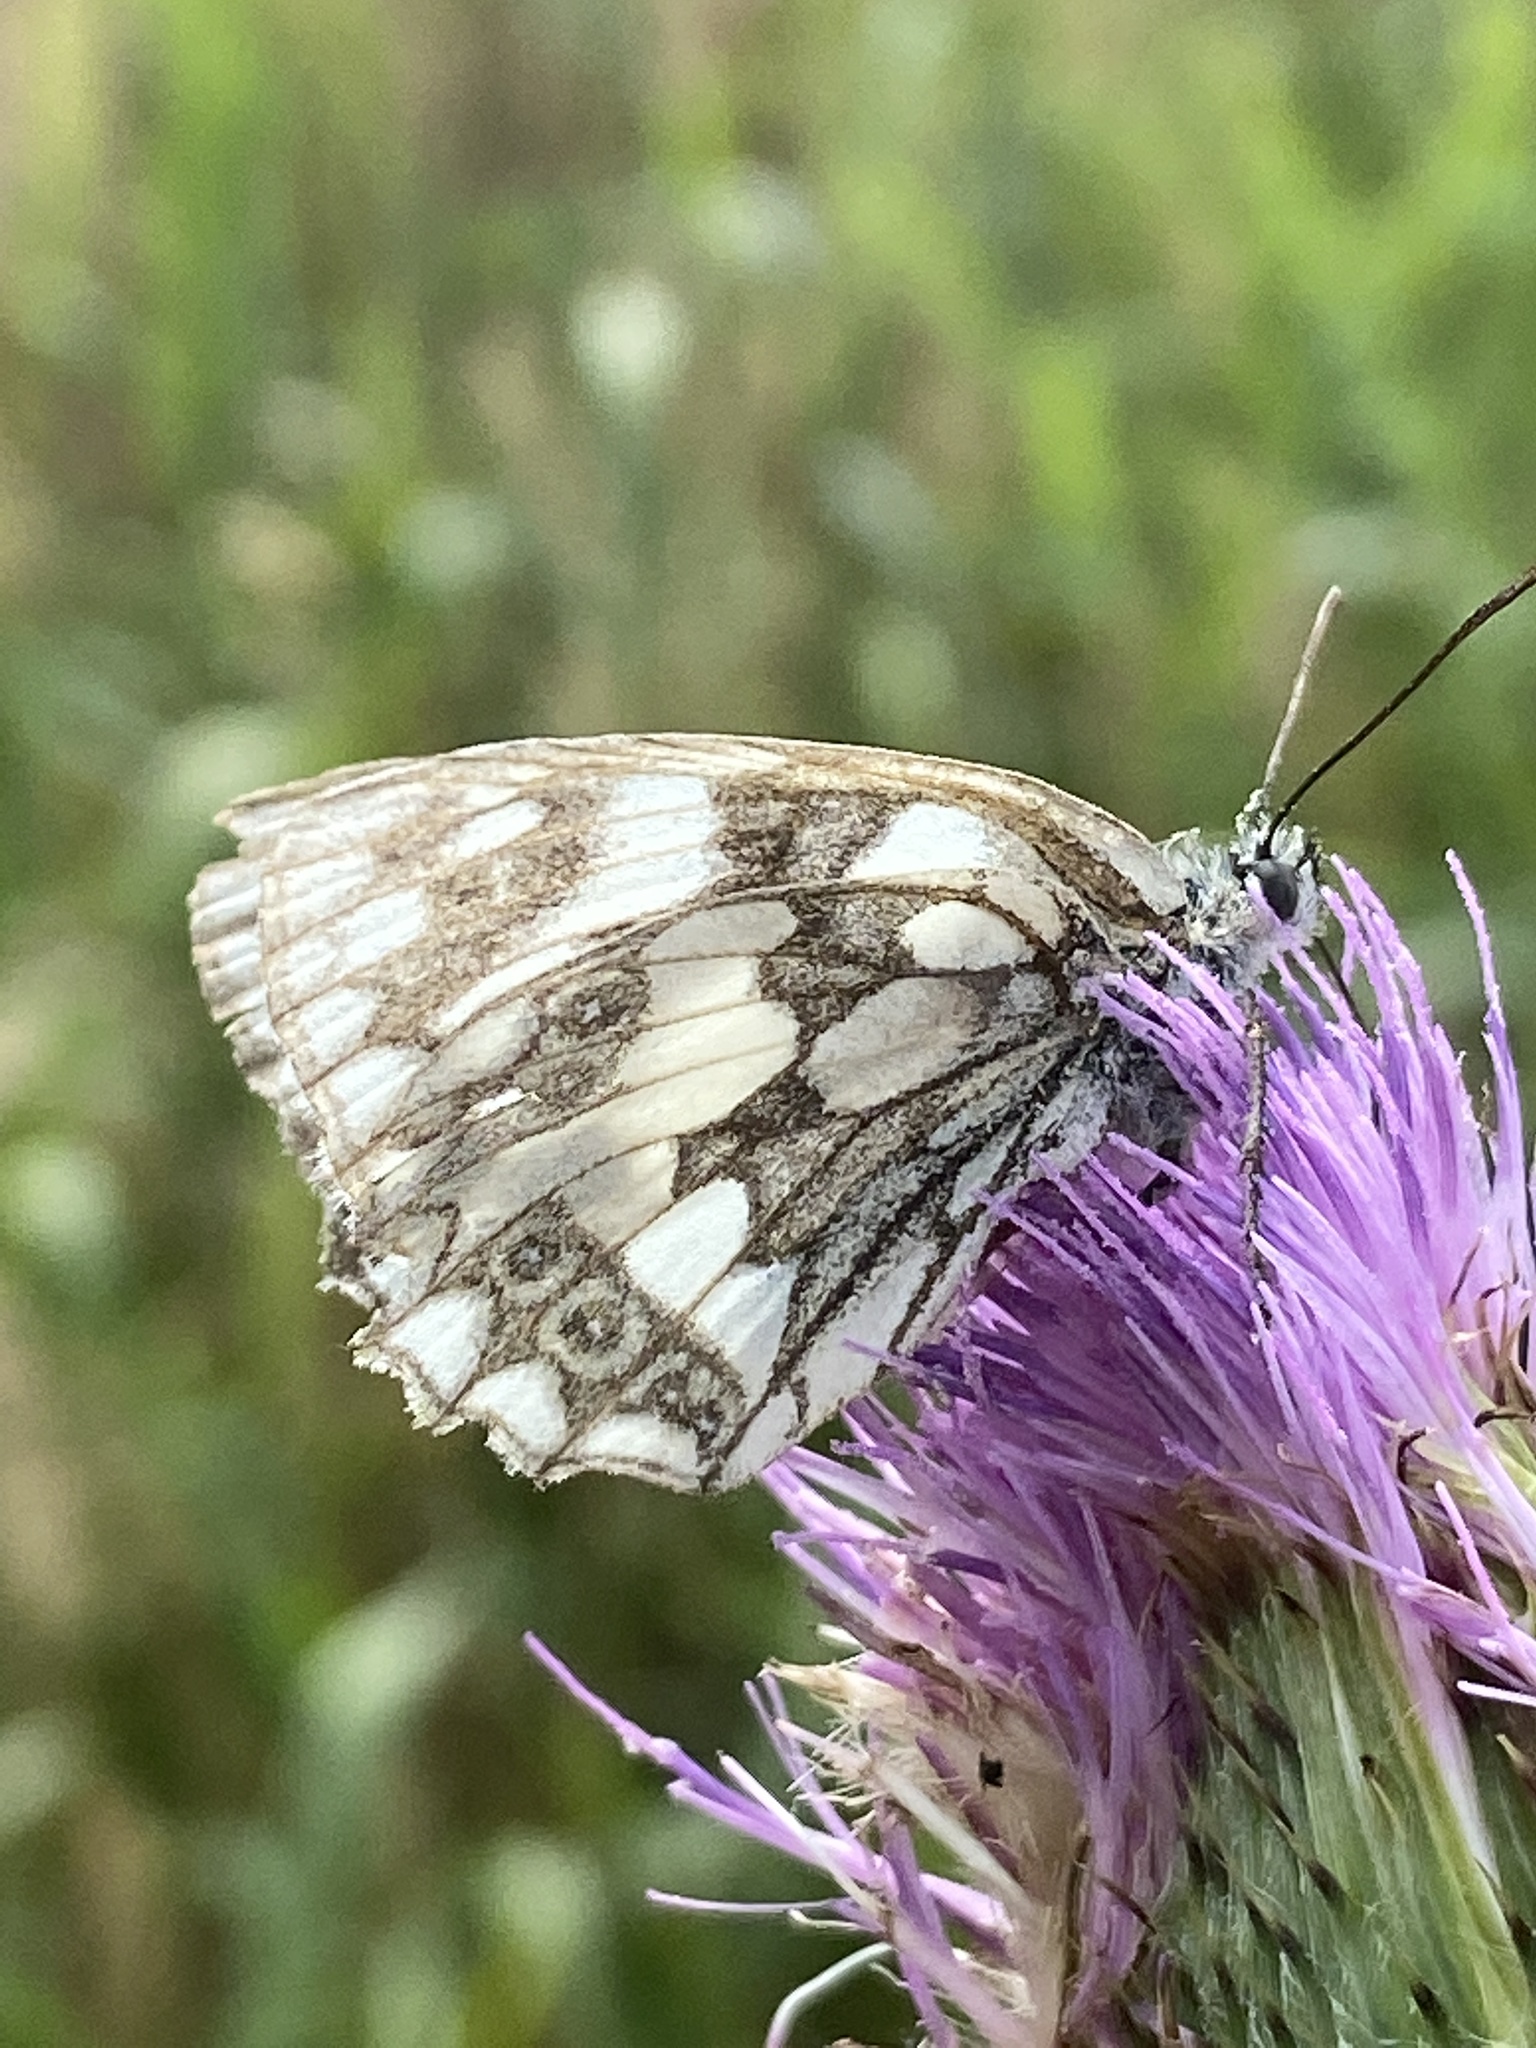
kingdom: Animalia
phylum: Arthropoda
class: Insecta
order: Lepidoptera
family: Nymphalidae
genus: Melanargia
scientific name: Melanargia galathea
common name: Marbled white
